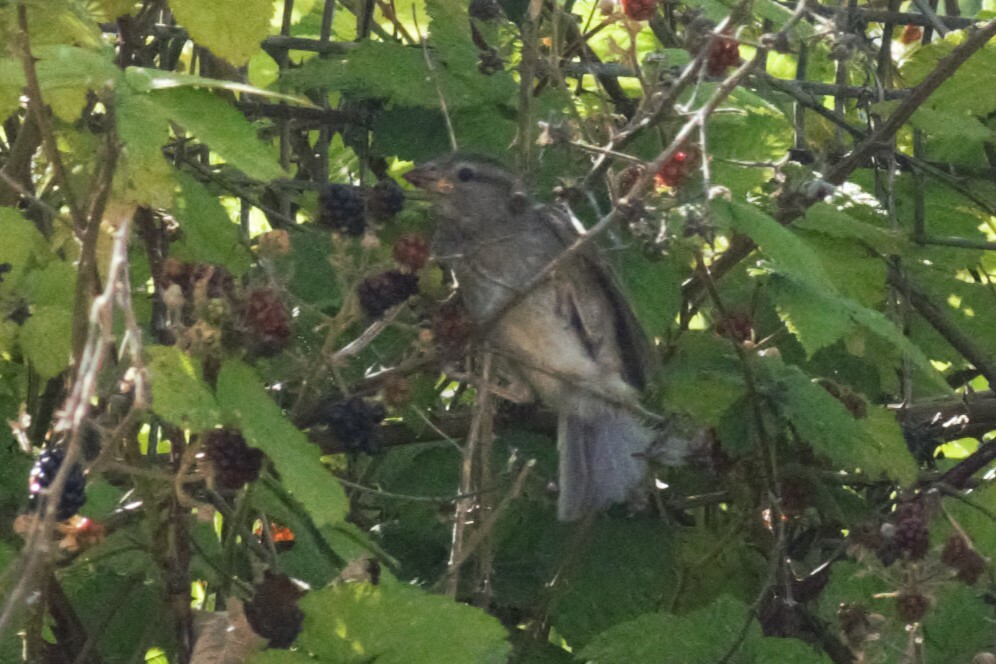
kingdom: Animalia
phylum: Chordata
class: Aves
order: Passeriformes
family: Passeridae
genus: Passer
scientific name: Passer domesticus
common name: House sparrow
